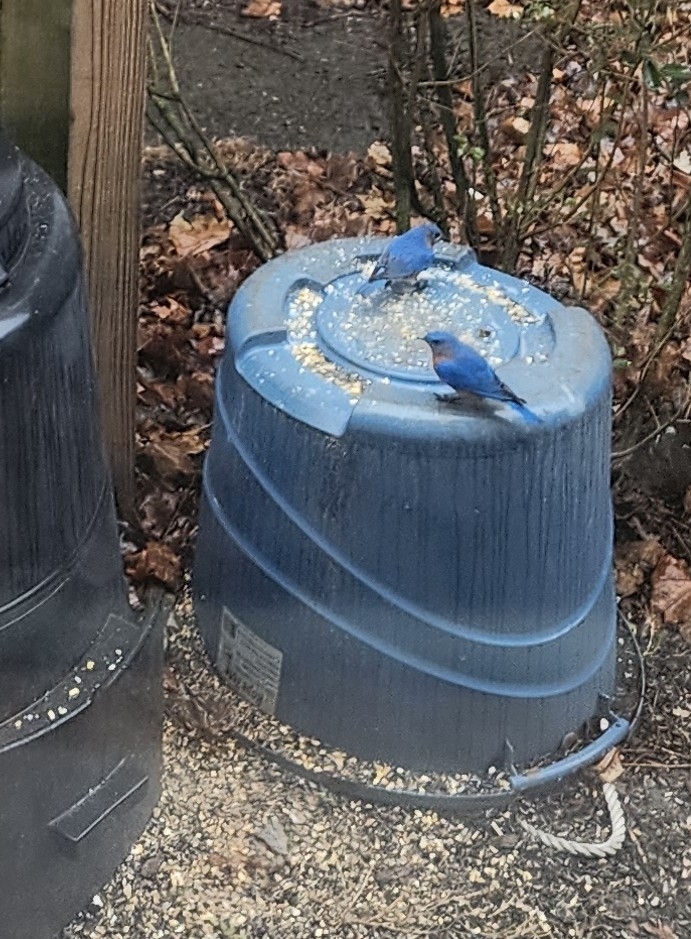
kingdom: Animalia
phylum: Chordata
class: Aves
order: Passeriformes
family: Turdidae
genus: Sialia
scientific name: Sialia sialis
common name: Eastern bluebird
